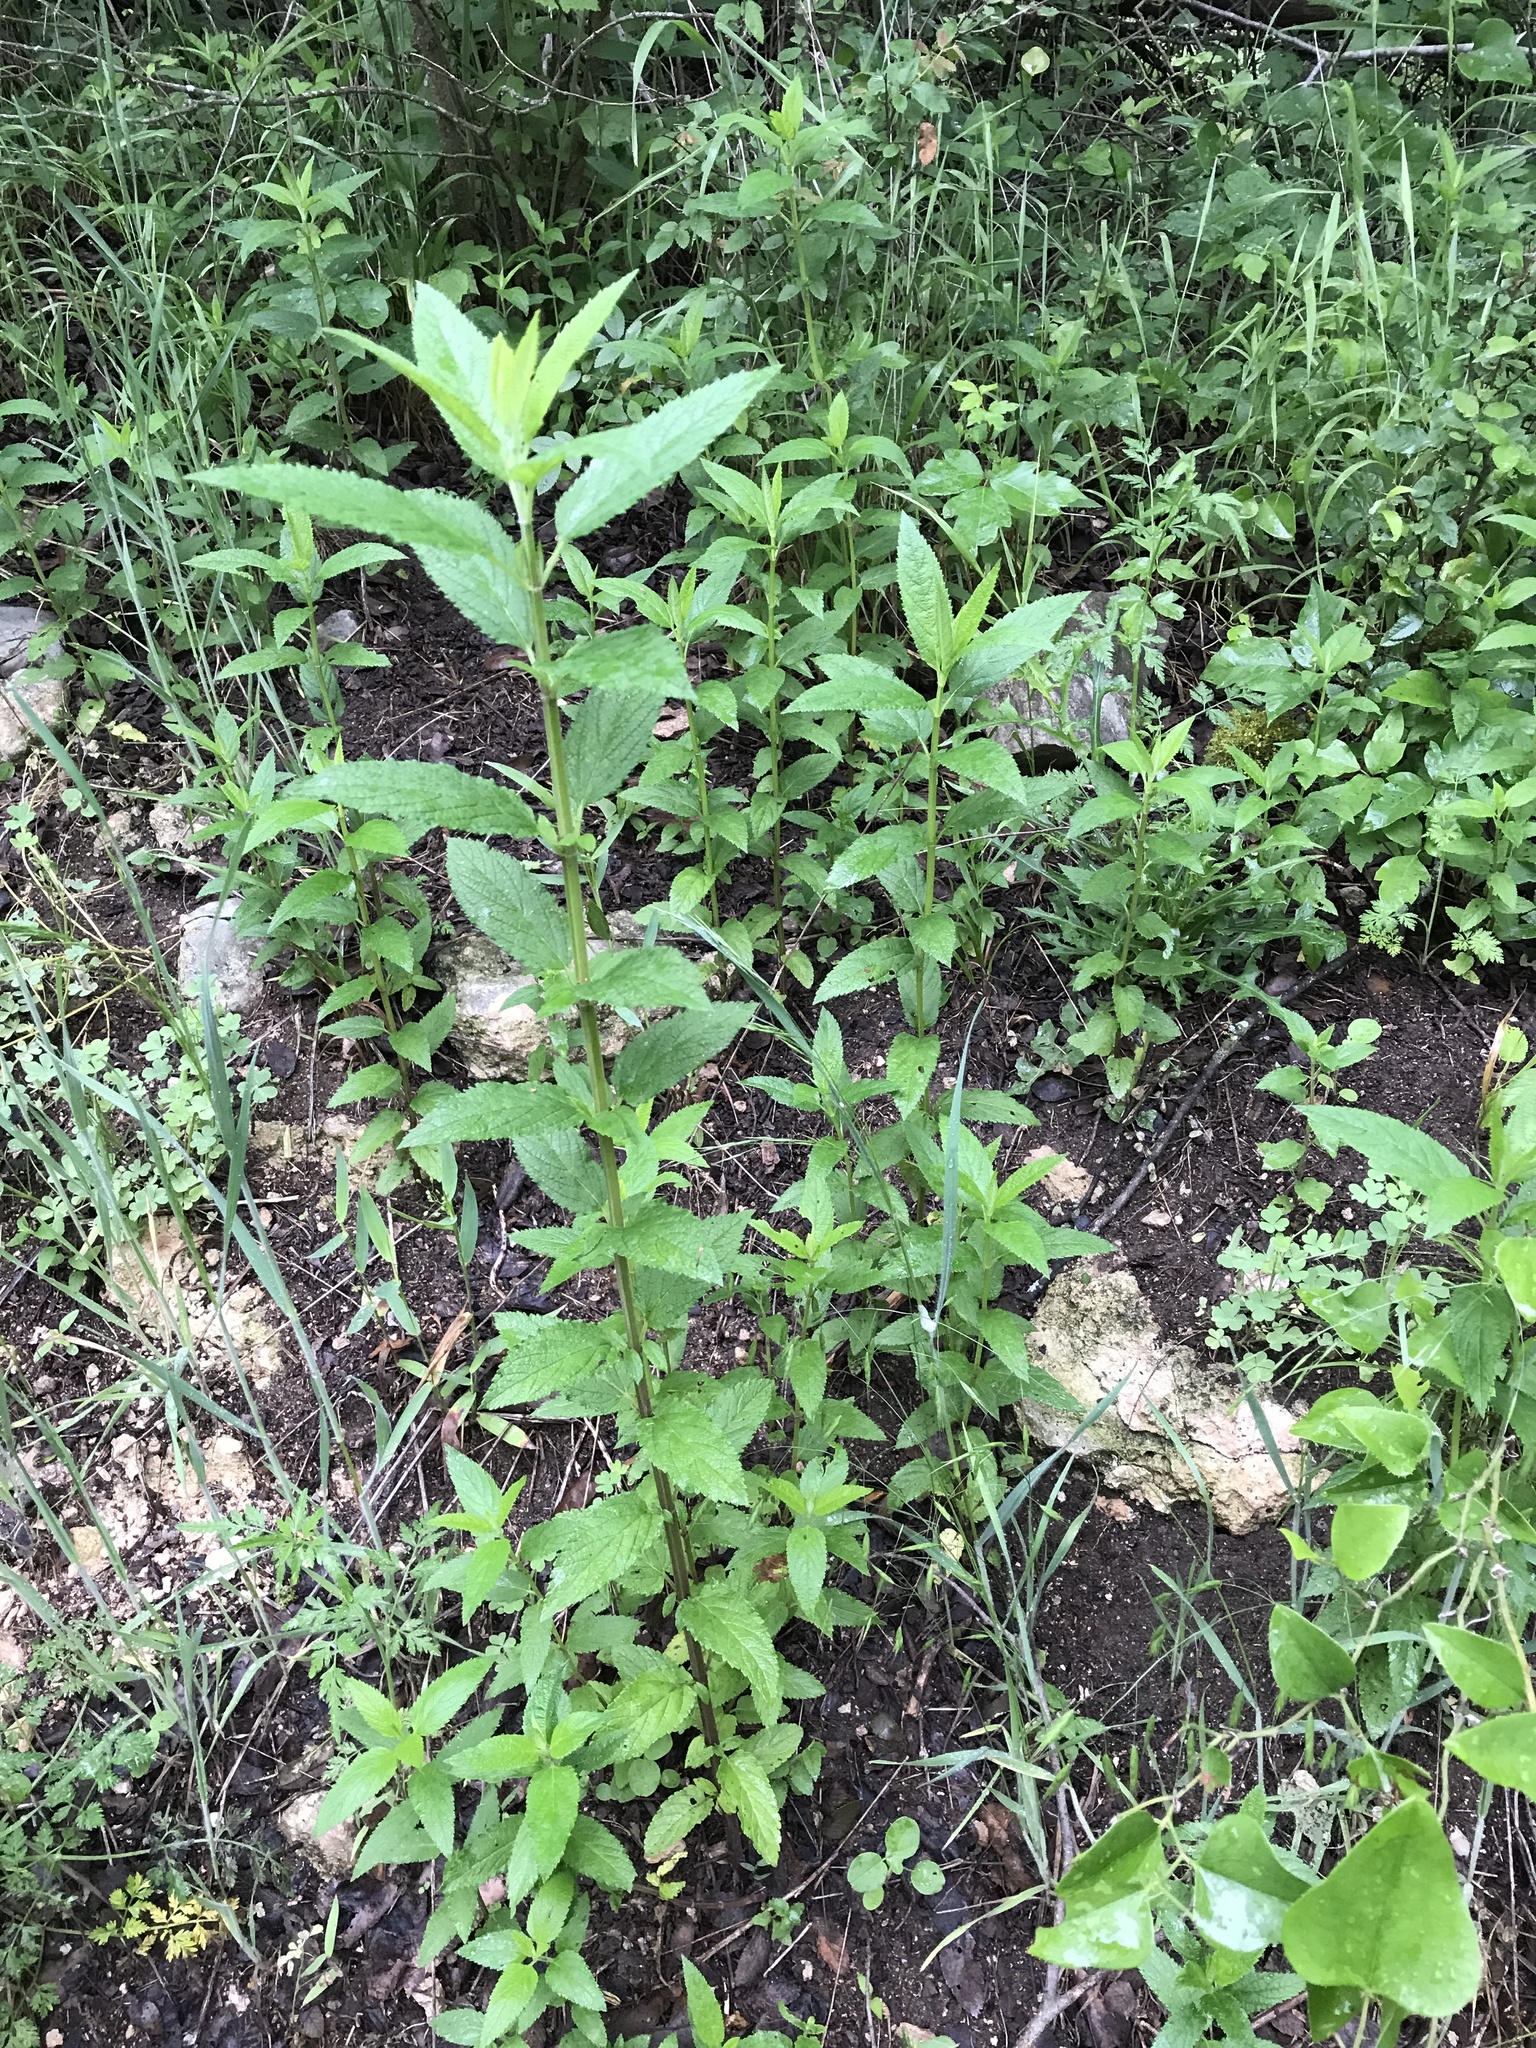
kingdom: Plantae
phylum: Tracheophyta
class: Magnoliopsida
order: Lamiales
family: Lamiaceae
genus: Teucrium
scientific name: Teucrium canadense
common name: American germander
